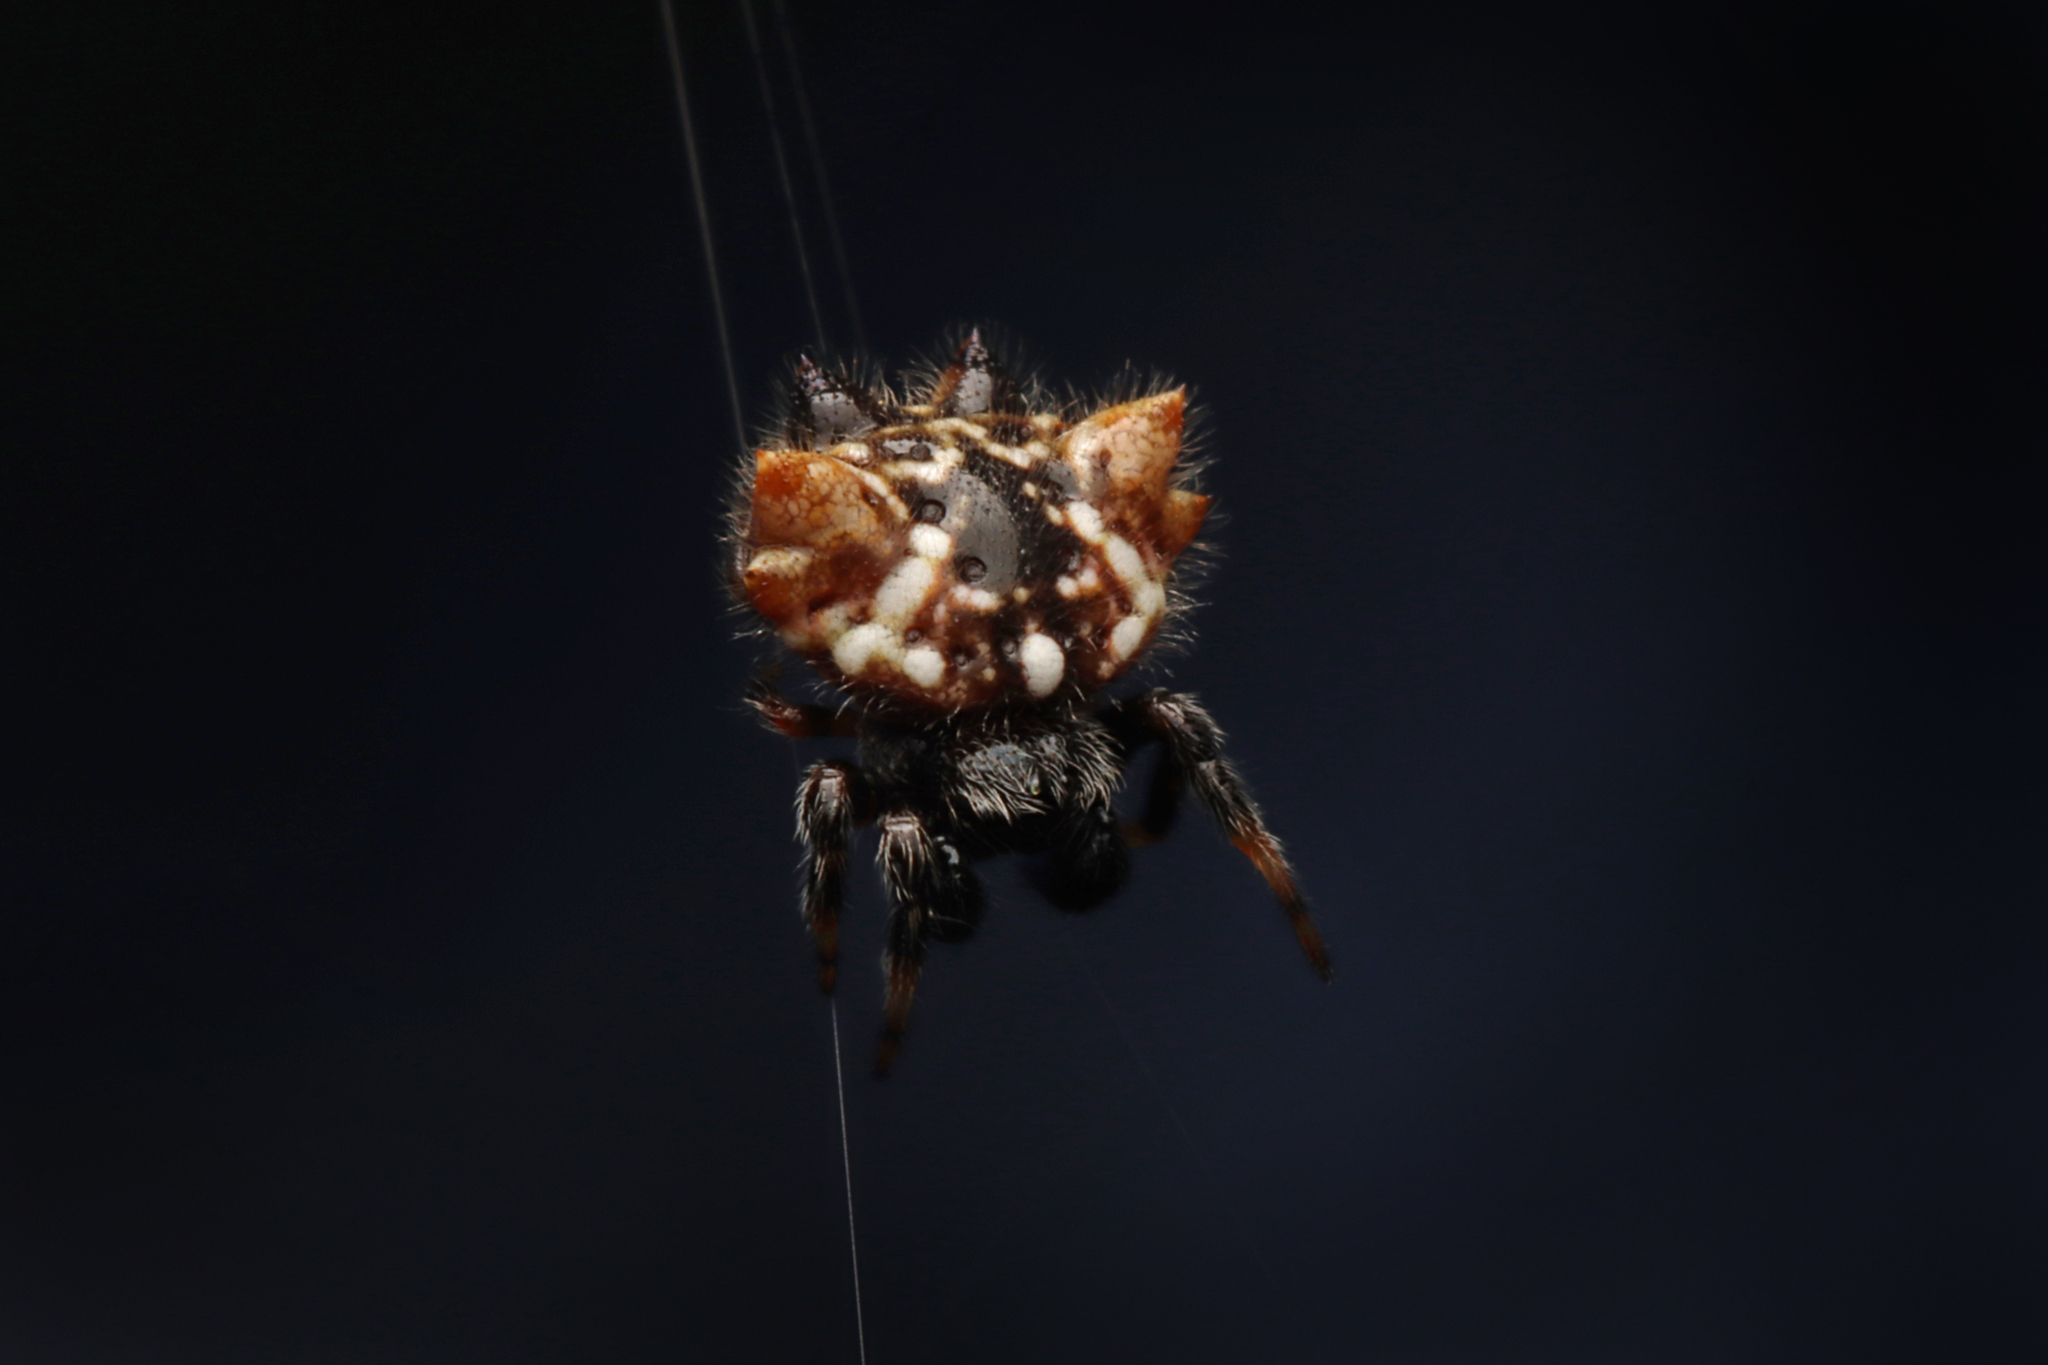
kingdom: Animalia
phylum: Arthropoda
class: Arachnida
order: Araneae
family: Araneidae
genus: Austracantha
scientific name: Austracantha minax
